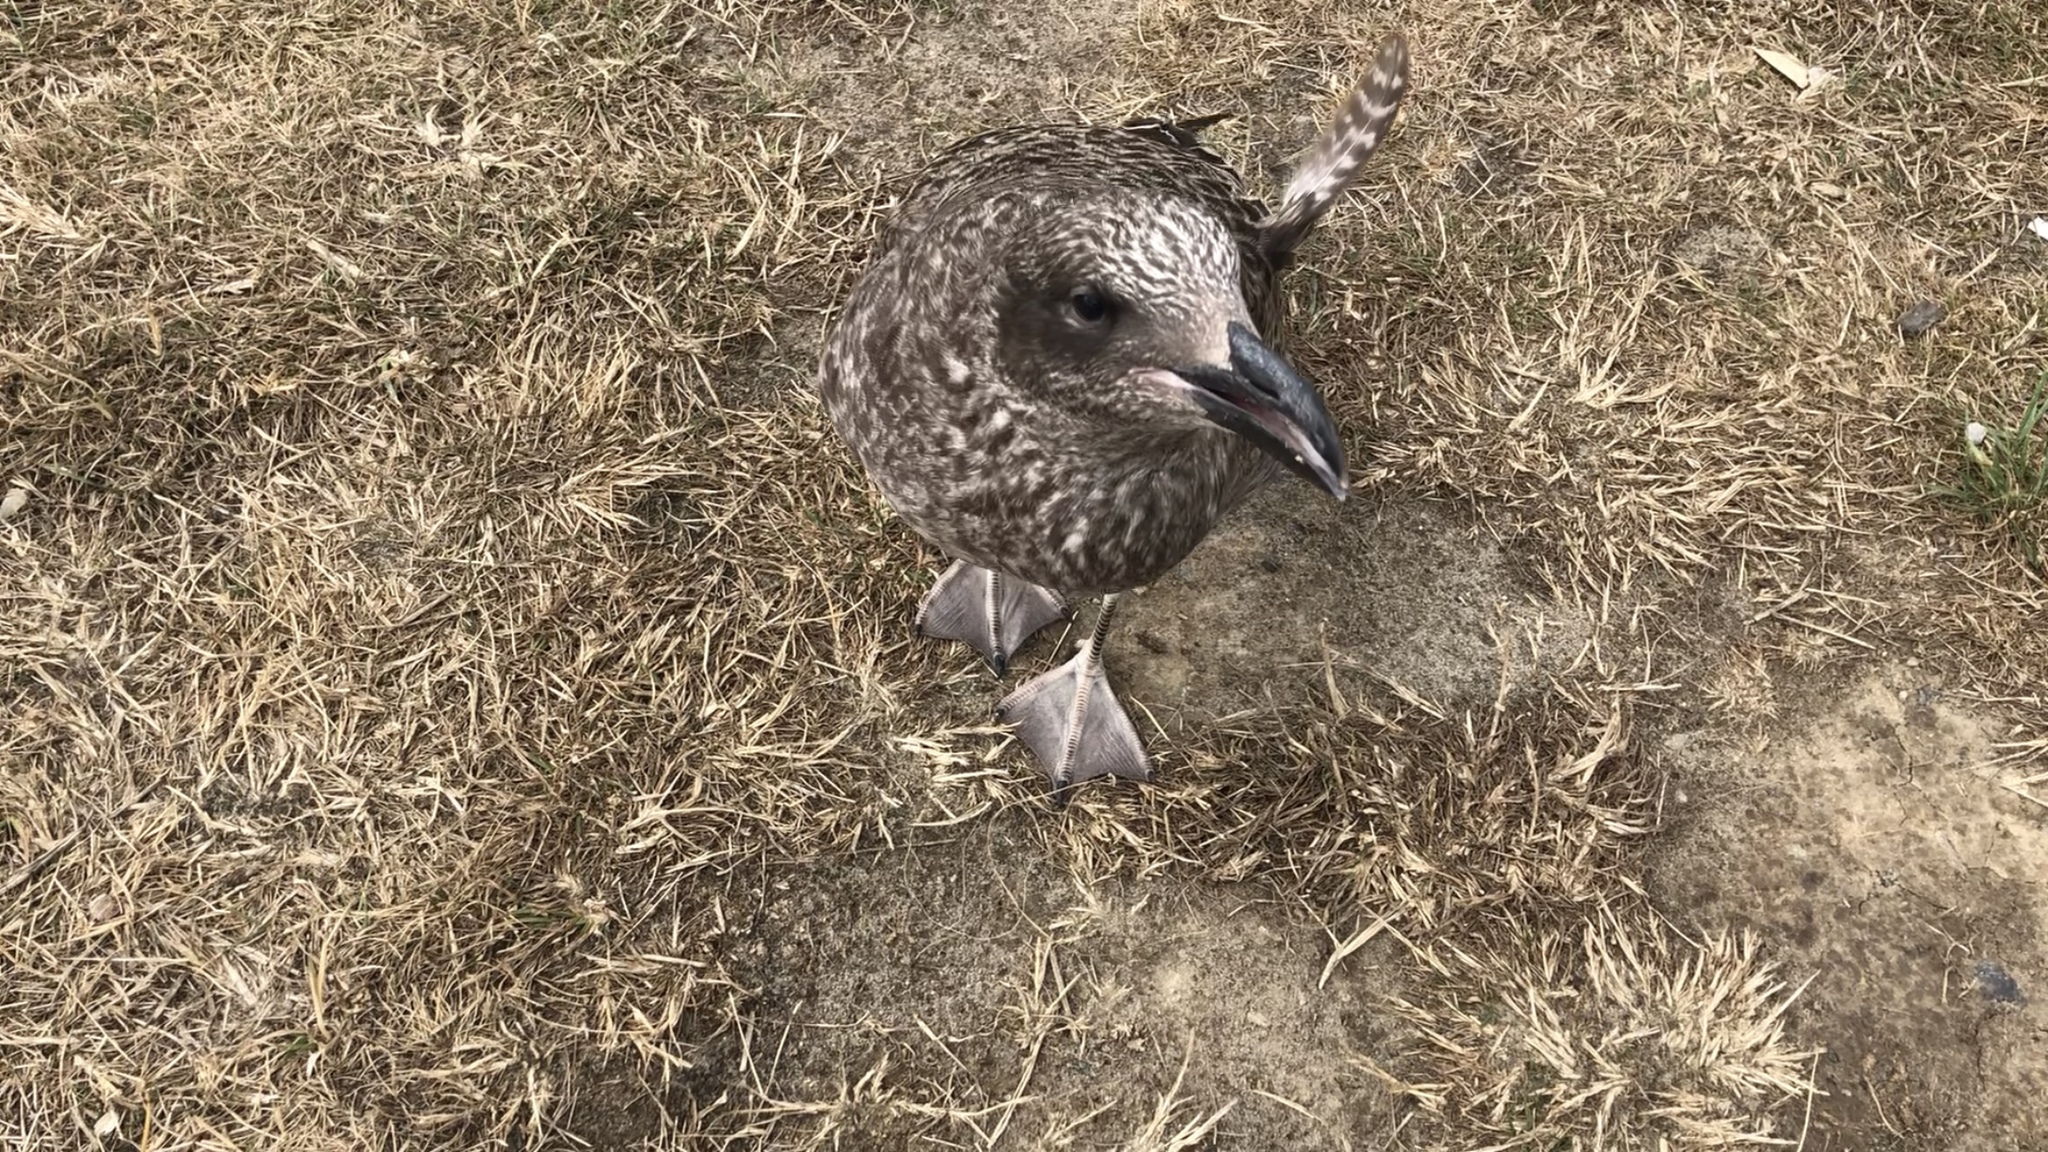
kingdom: Animalia
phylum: Chordata
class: Aves
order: Charadriiformes
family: Laridae
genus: Larus
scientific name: Larus dominicanus
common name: Kelp gull
